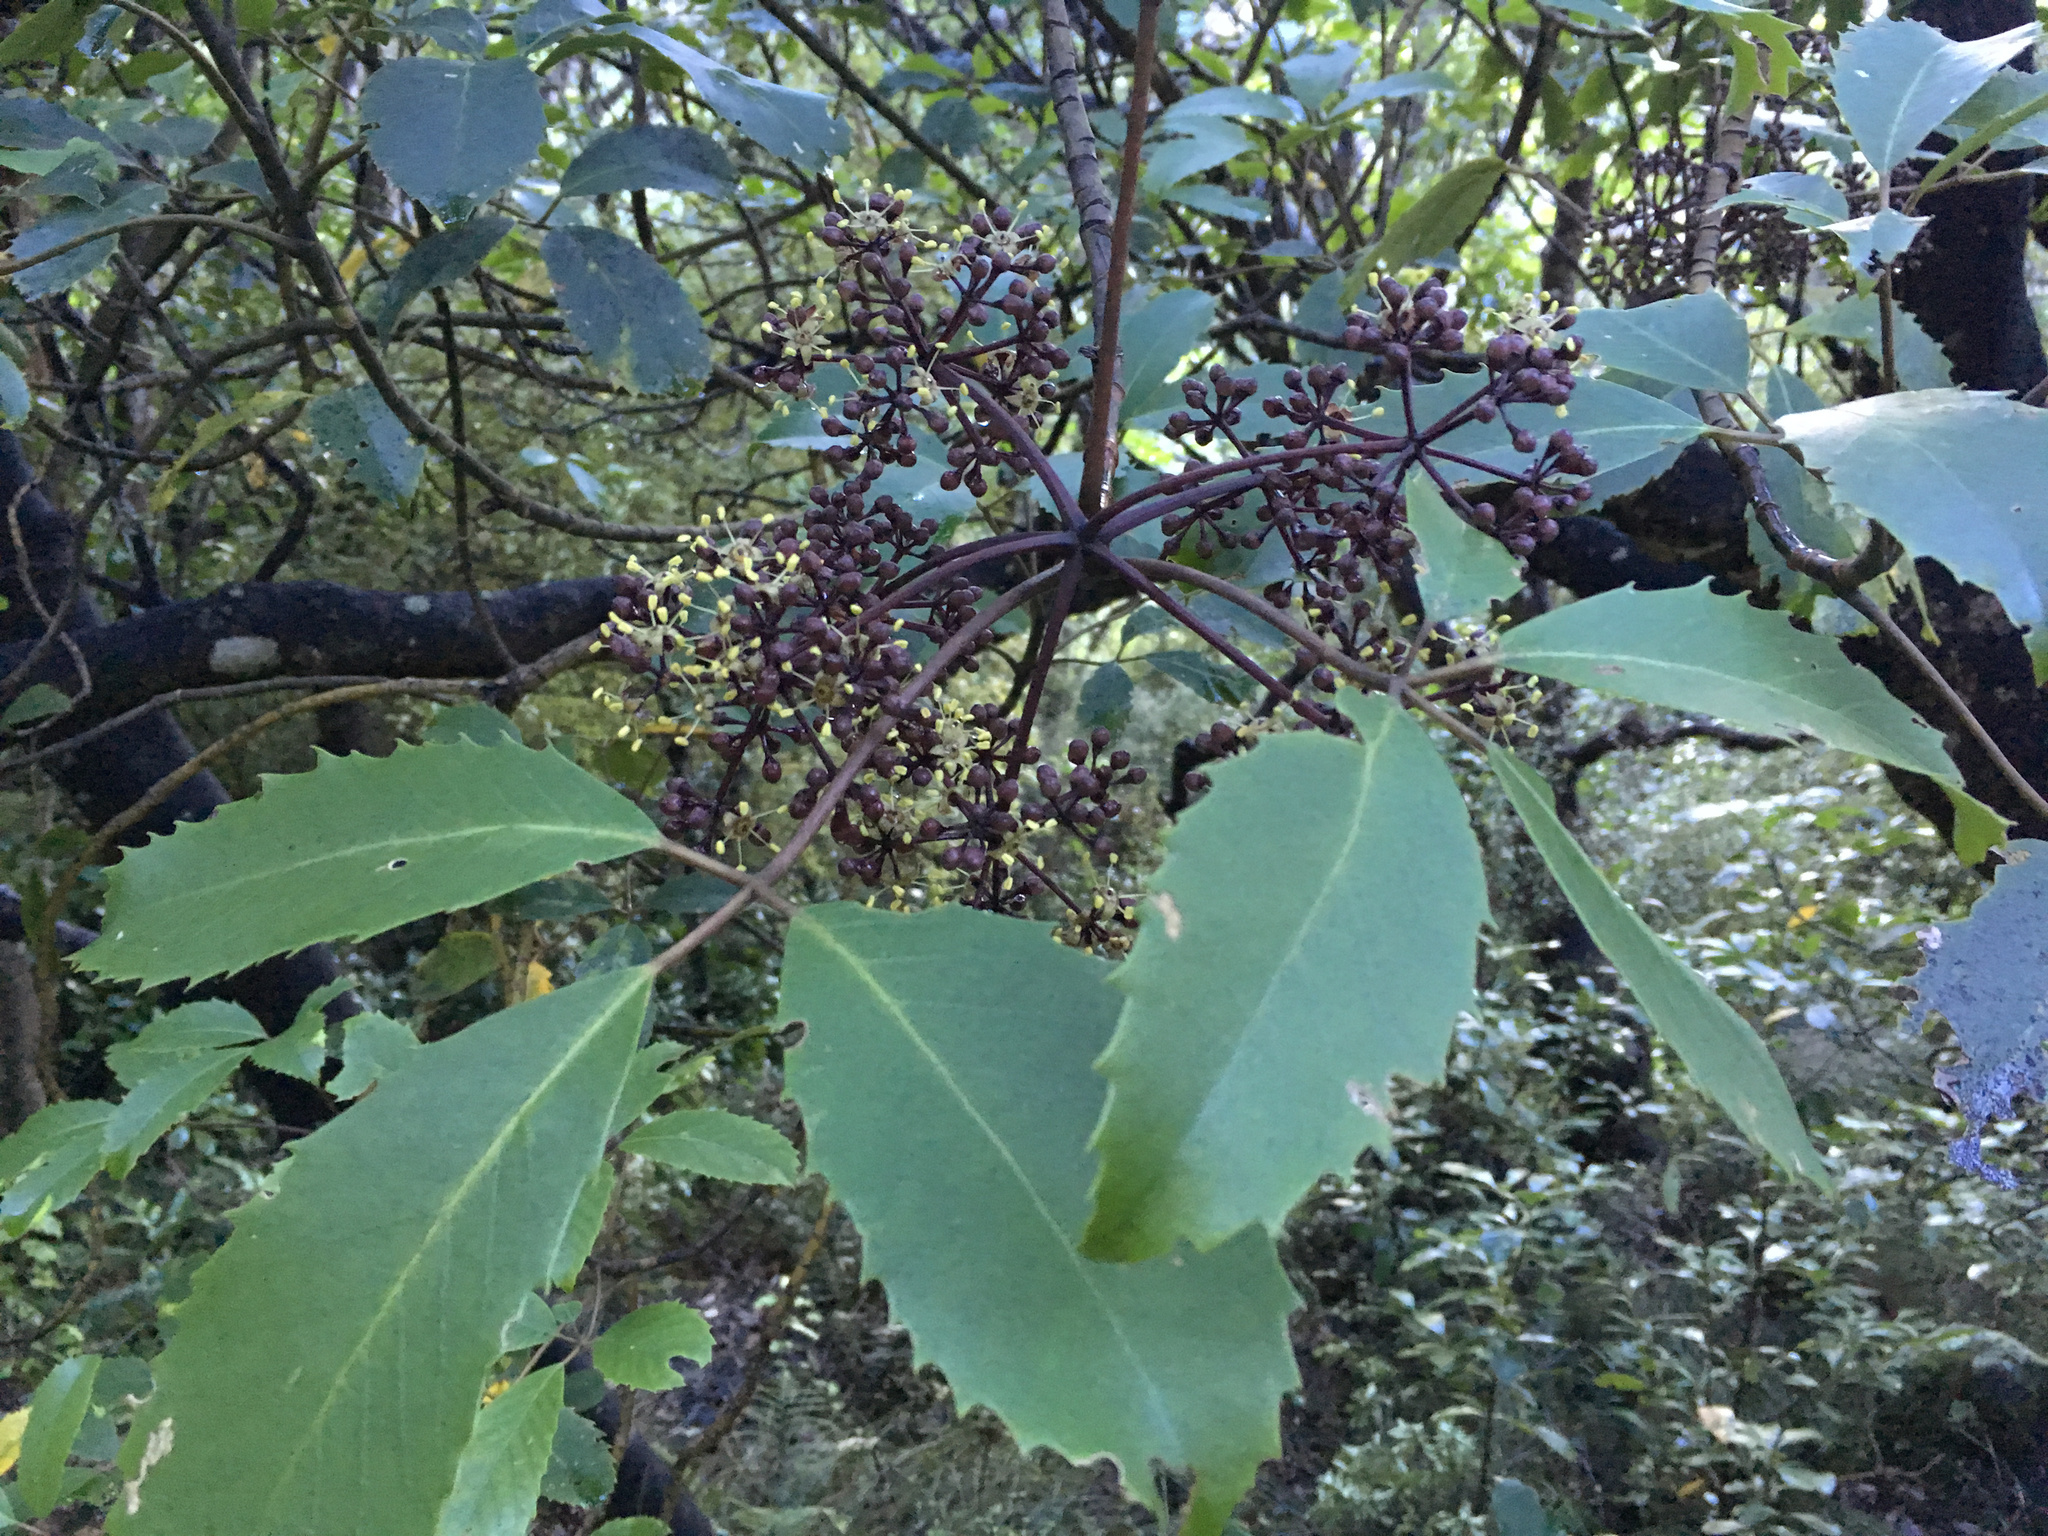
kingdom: Plantae
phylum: Tracheophyta
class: Magnoliopsida
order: Apiales
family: Araliaceae
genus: Neopanax
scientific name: Neopanax arboreus
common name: Five-fingers
